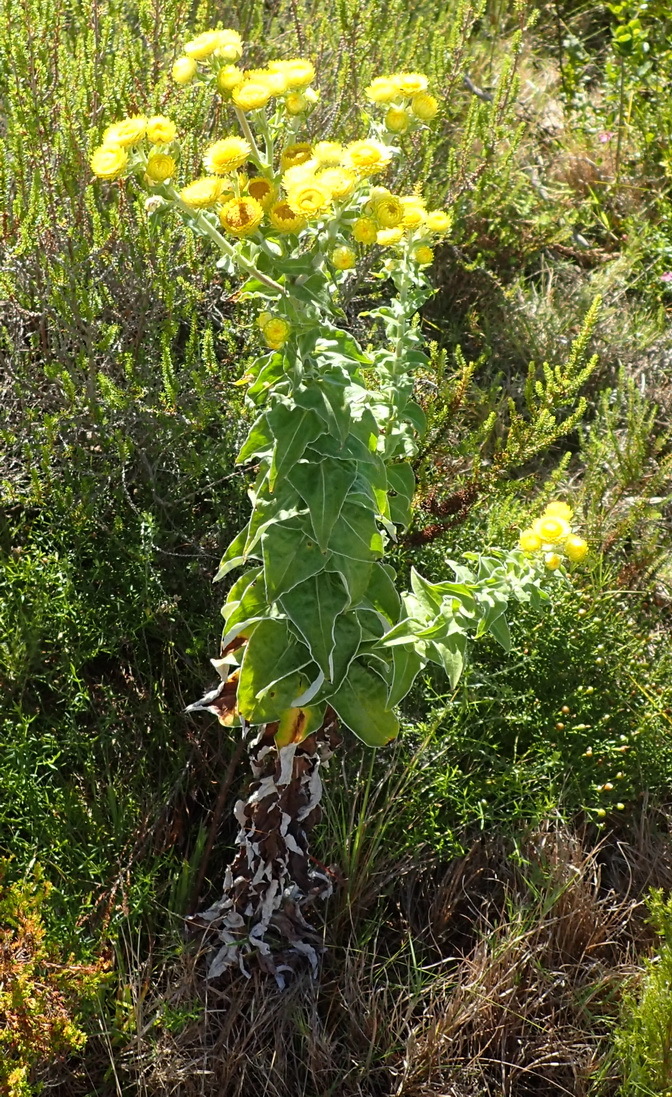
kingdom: Plantae
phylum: Tracheophyta
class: Magnoliopsida
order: Asterales
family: Asteraceae
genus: Helichrysum
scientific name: Helichrysum foetidum
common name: Stinking everlasting
